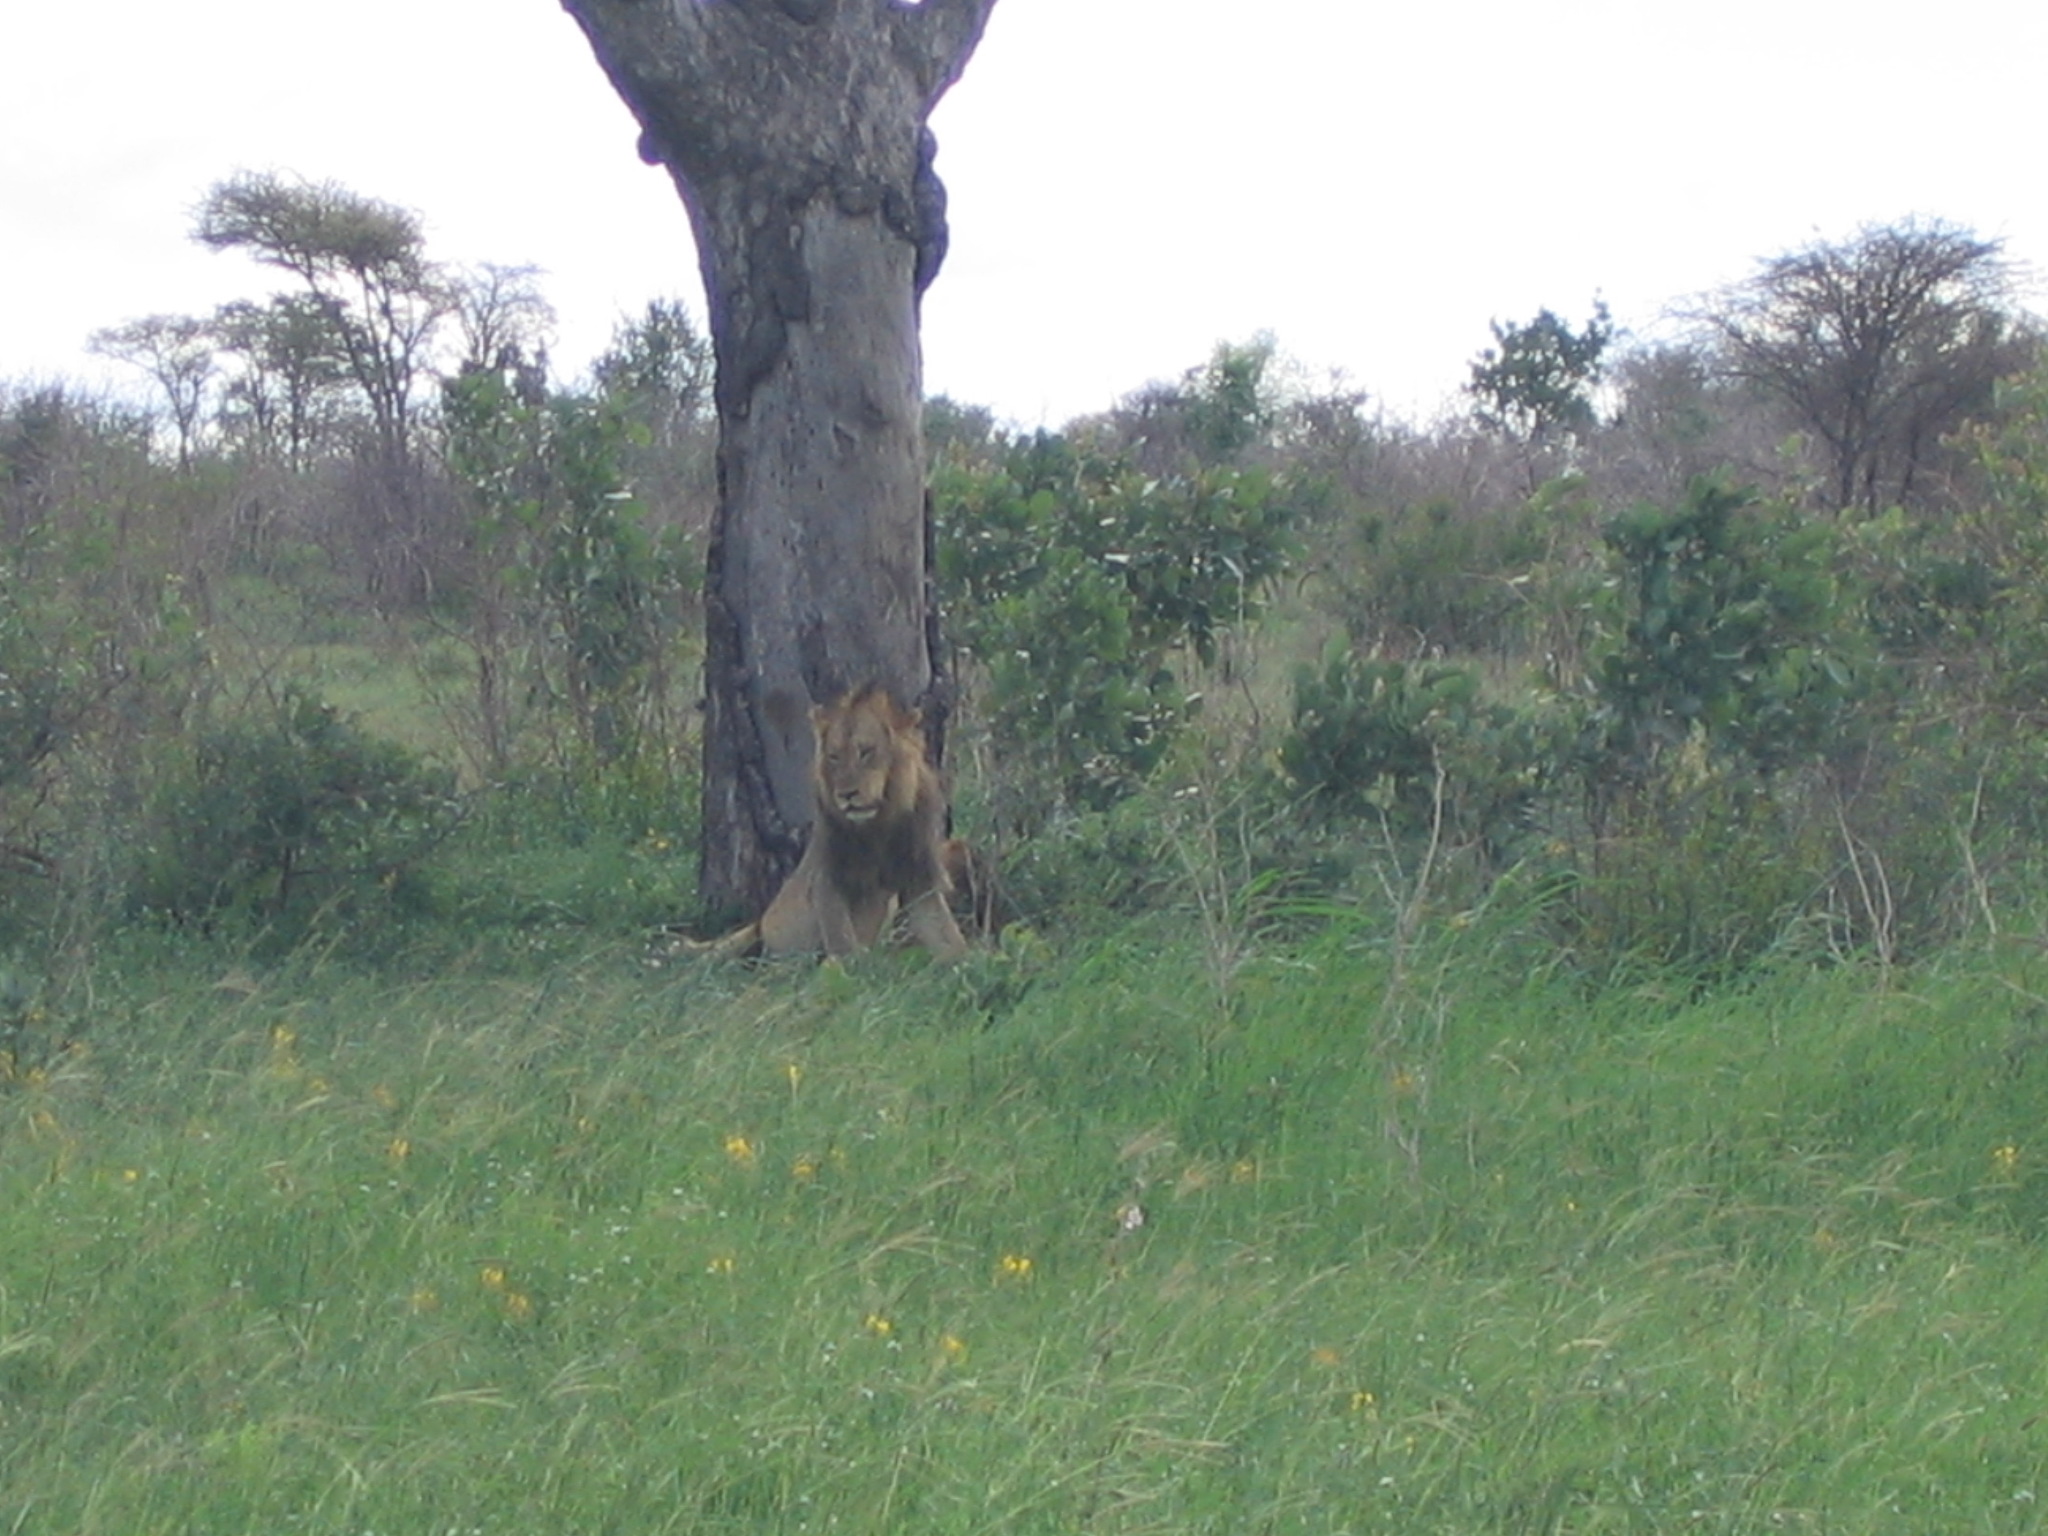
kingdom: Animalia
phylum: Chordata
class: Mammalia
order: Carnivora
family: Felidae
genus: Panthera
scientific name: Panthera leo
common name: Lion
